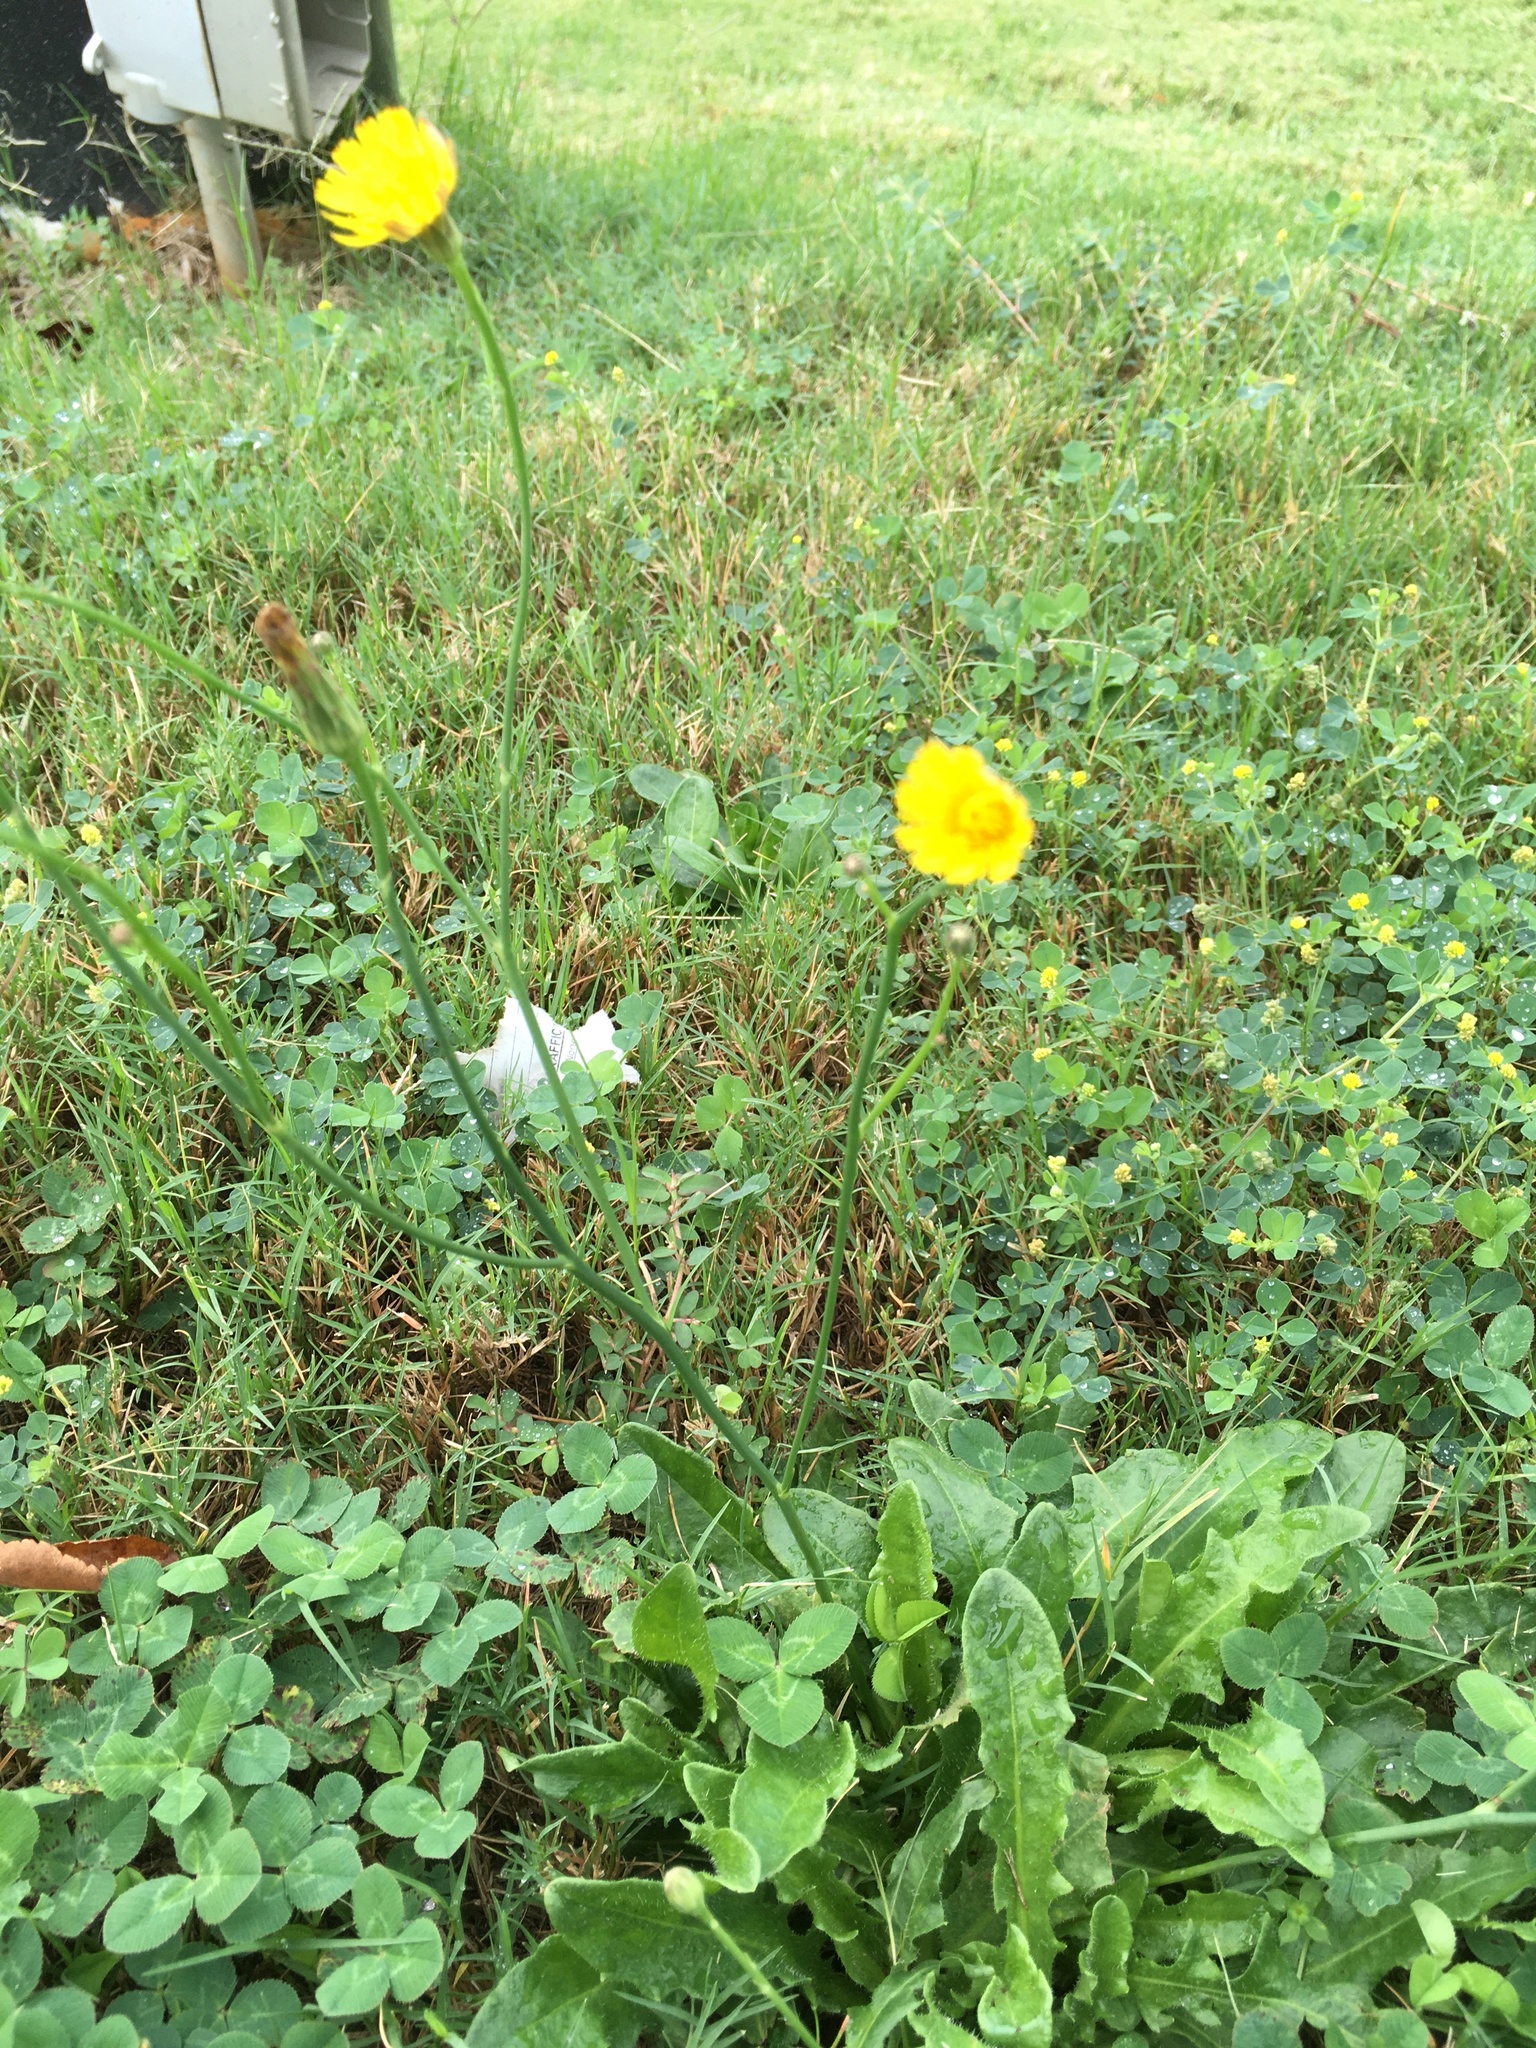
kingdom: Plantae
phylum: Tracheophyta
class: Magnoliopsida
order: Asterales
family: Asteraceae
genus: Hypochaeris
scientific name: Hypochaeris radicata
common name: Flatweed
